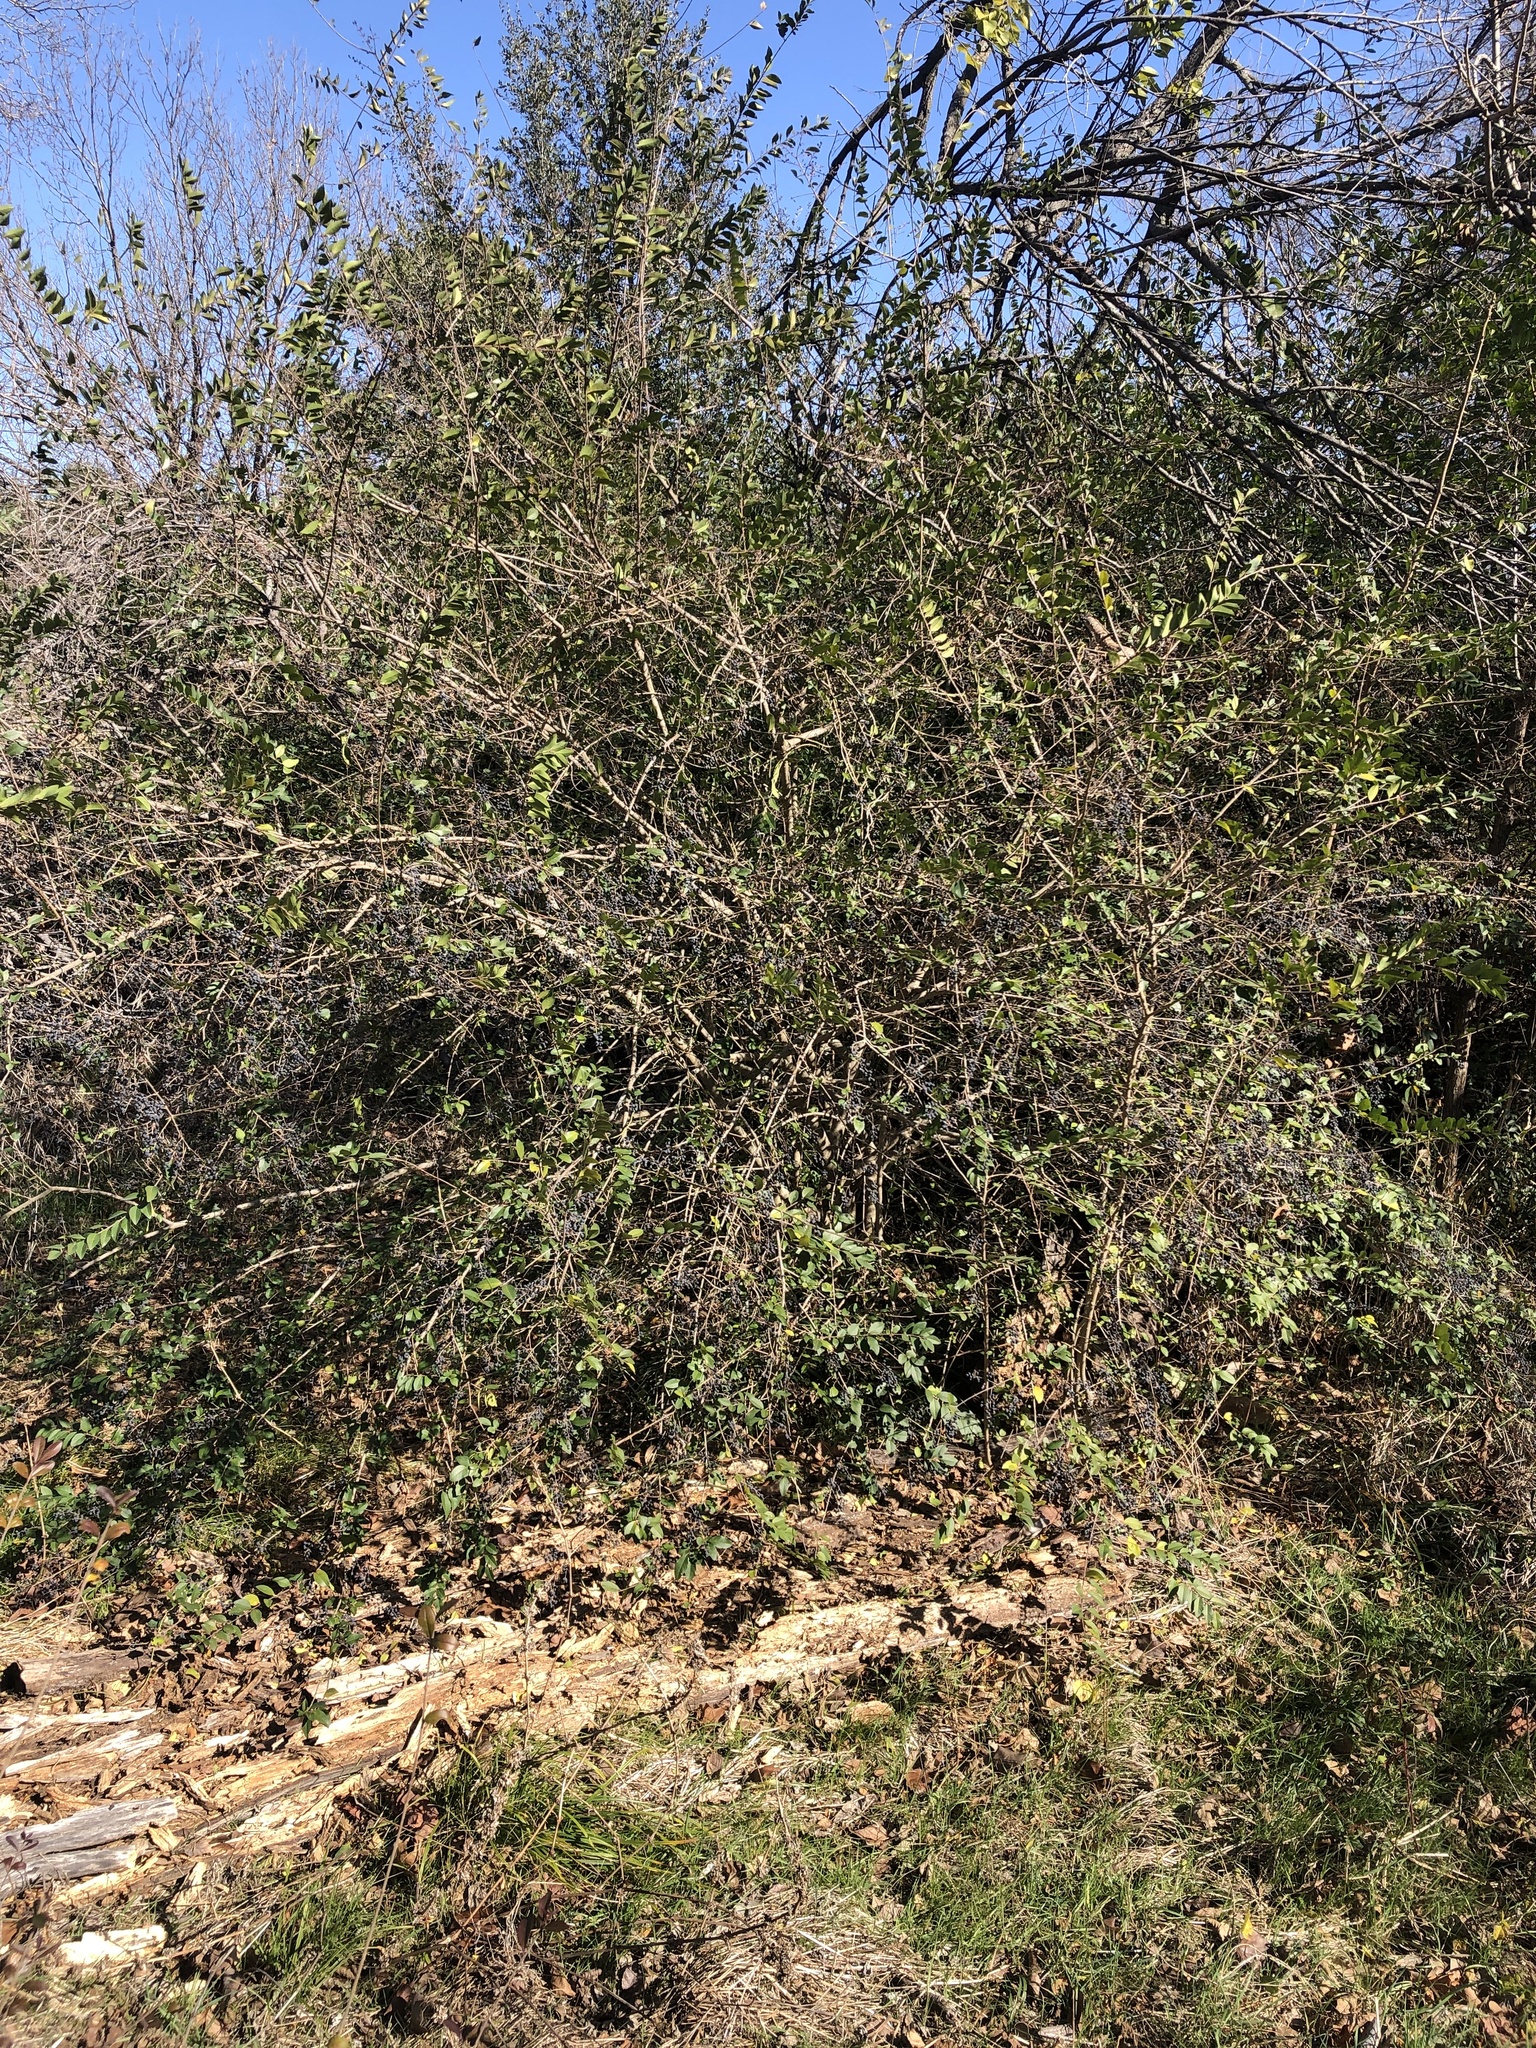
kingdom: Plantae
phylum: Tracheophyta
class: Magnoliopsida
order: Lamiales
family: Oleaceae
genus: Ligustrum
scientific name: Ligustrum sinense
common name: Chinese privet
